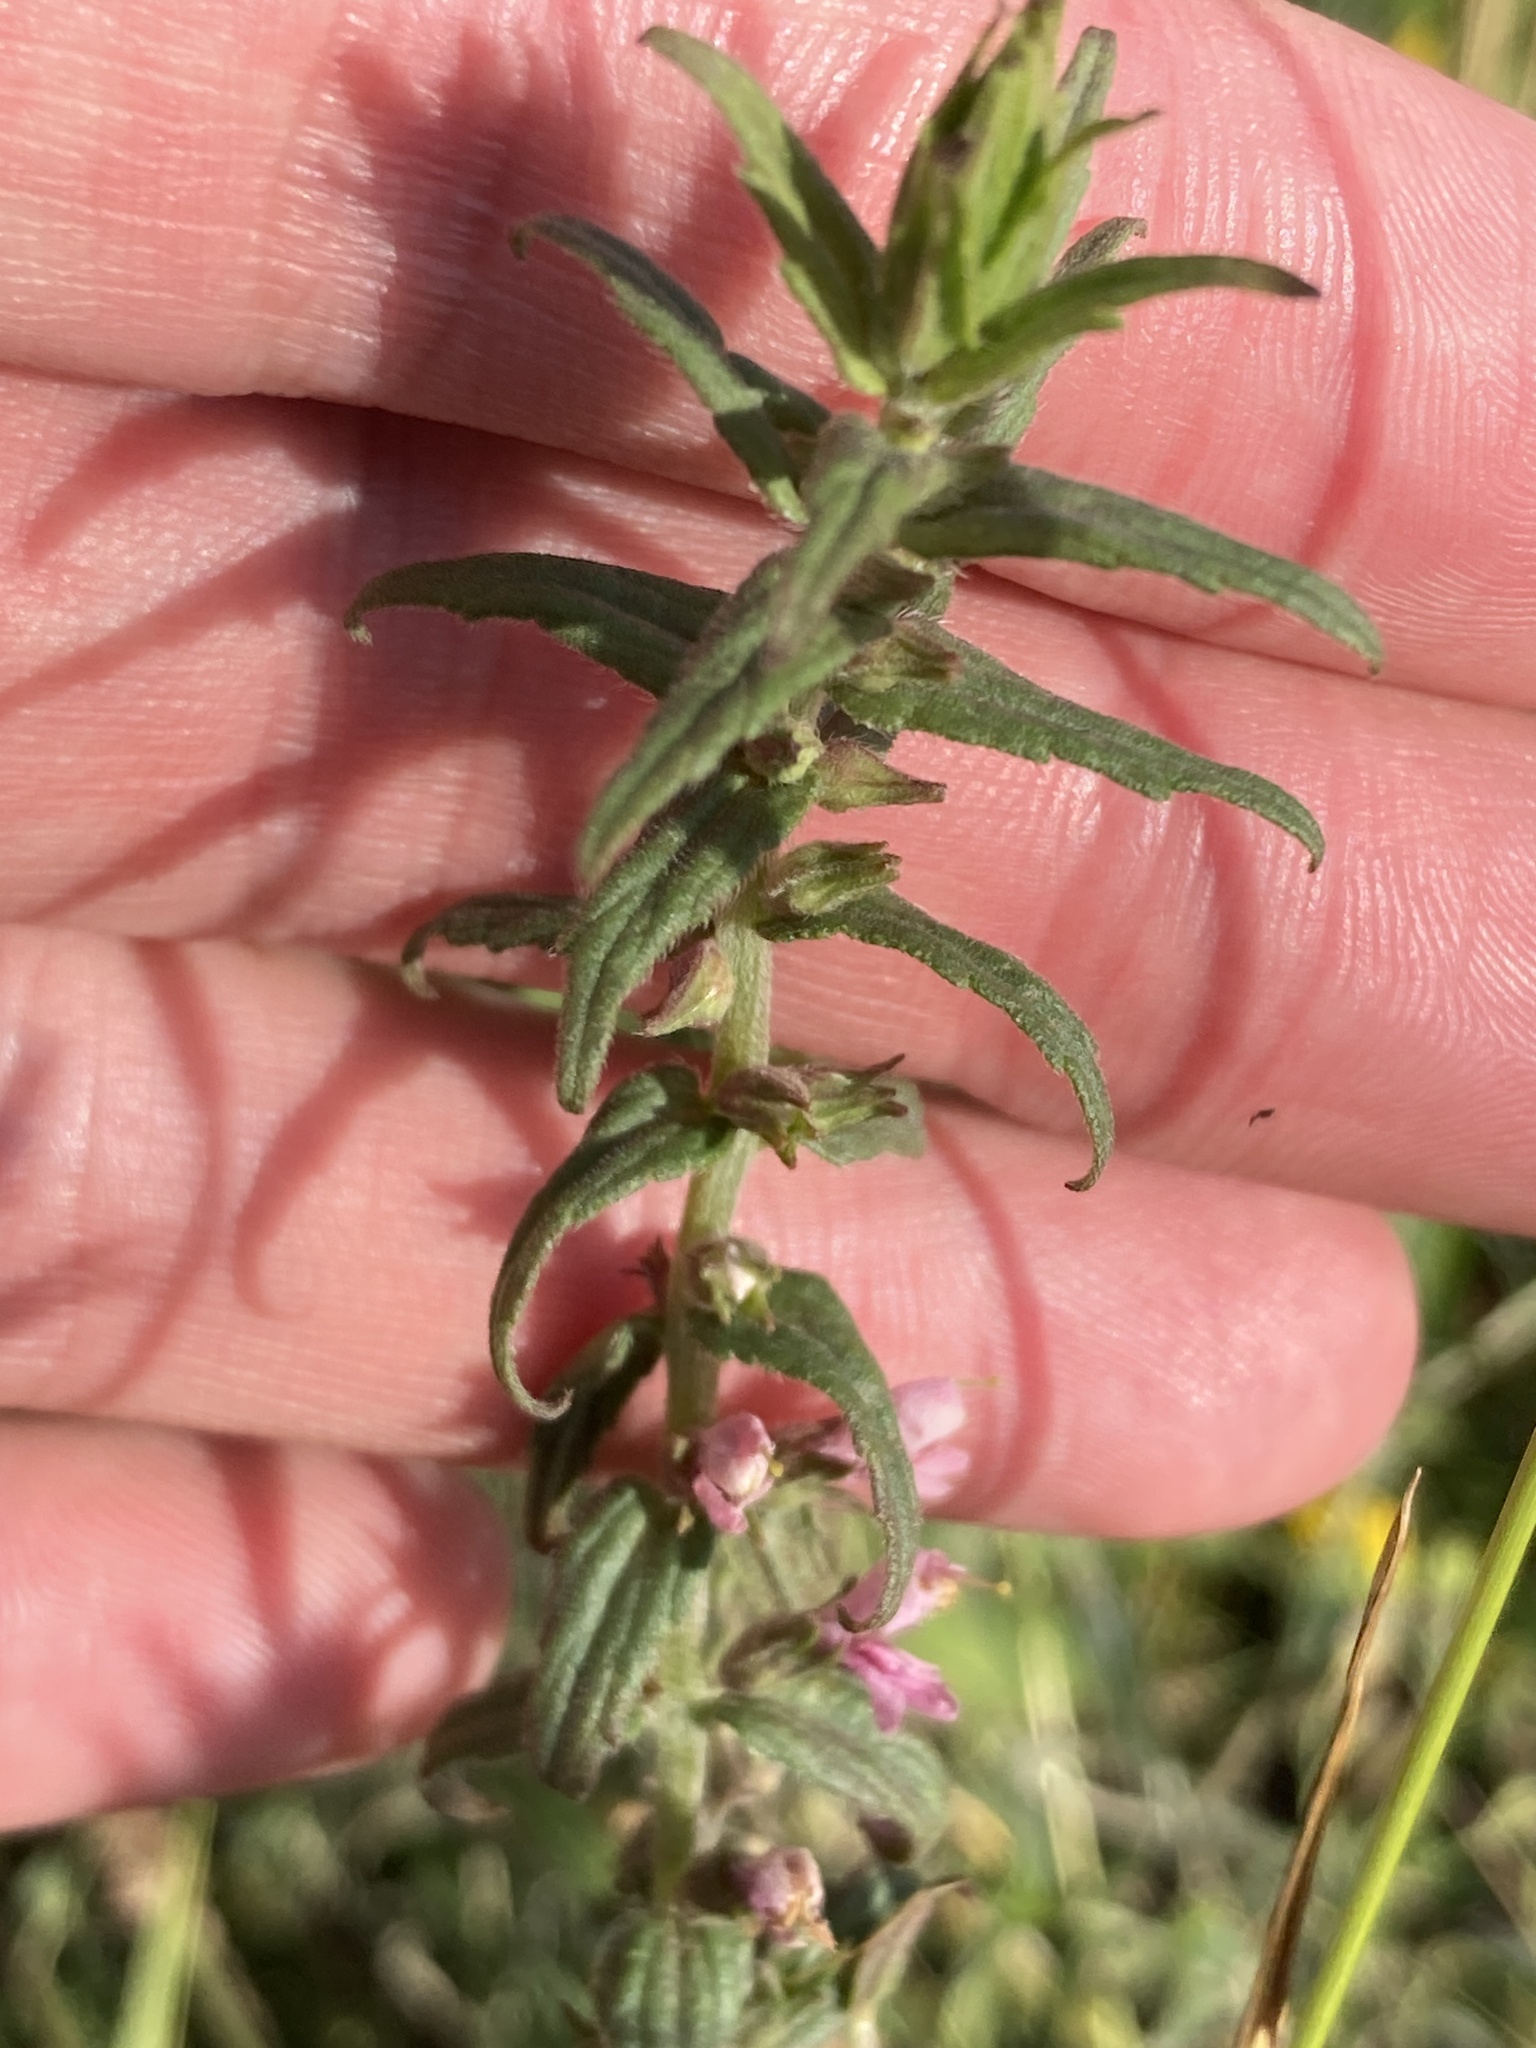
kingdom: Plantae
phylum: Tracheophyta
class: Magnoliopsida
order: Lamiales
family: Orobanchaceae
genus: Odontites
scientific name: Odontites vulgaris
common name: Broomrape
